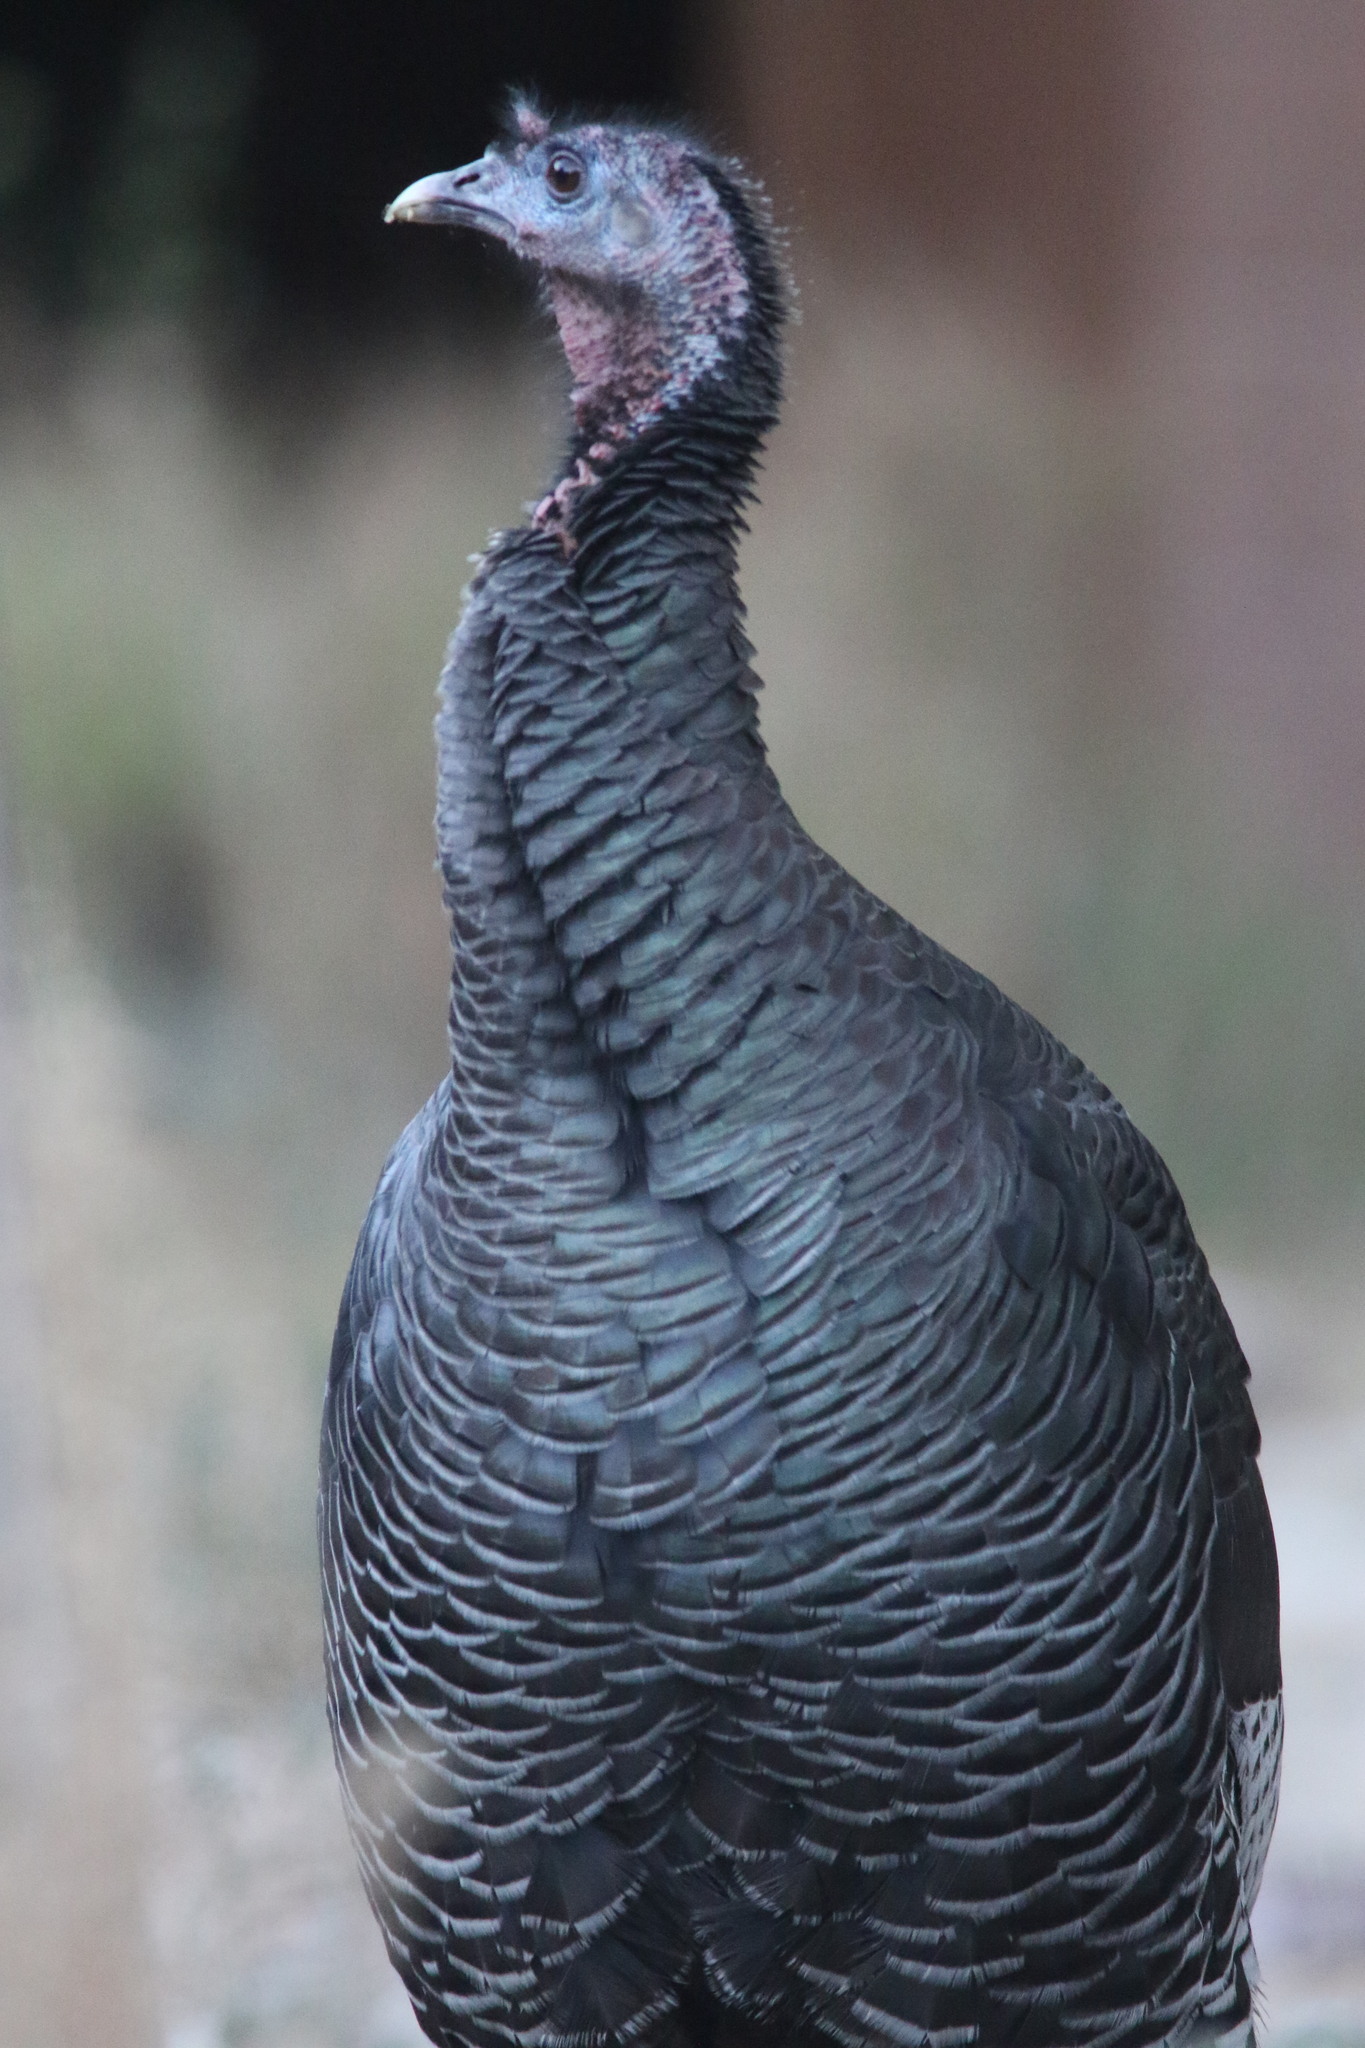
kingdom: Animalia
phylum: Chordata
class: Aves
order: Galliformes
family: Phasianidae
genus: Meleagris
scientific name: Meleagris gallopavo
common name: Wild turkey
